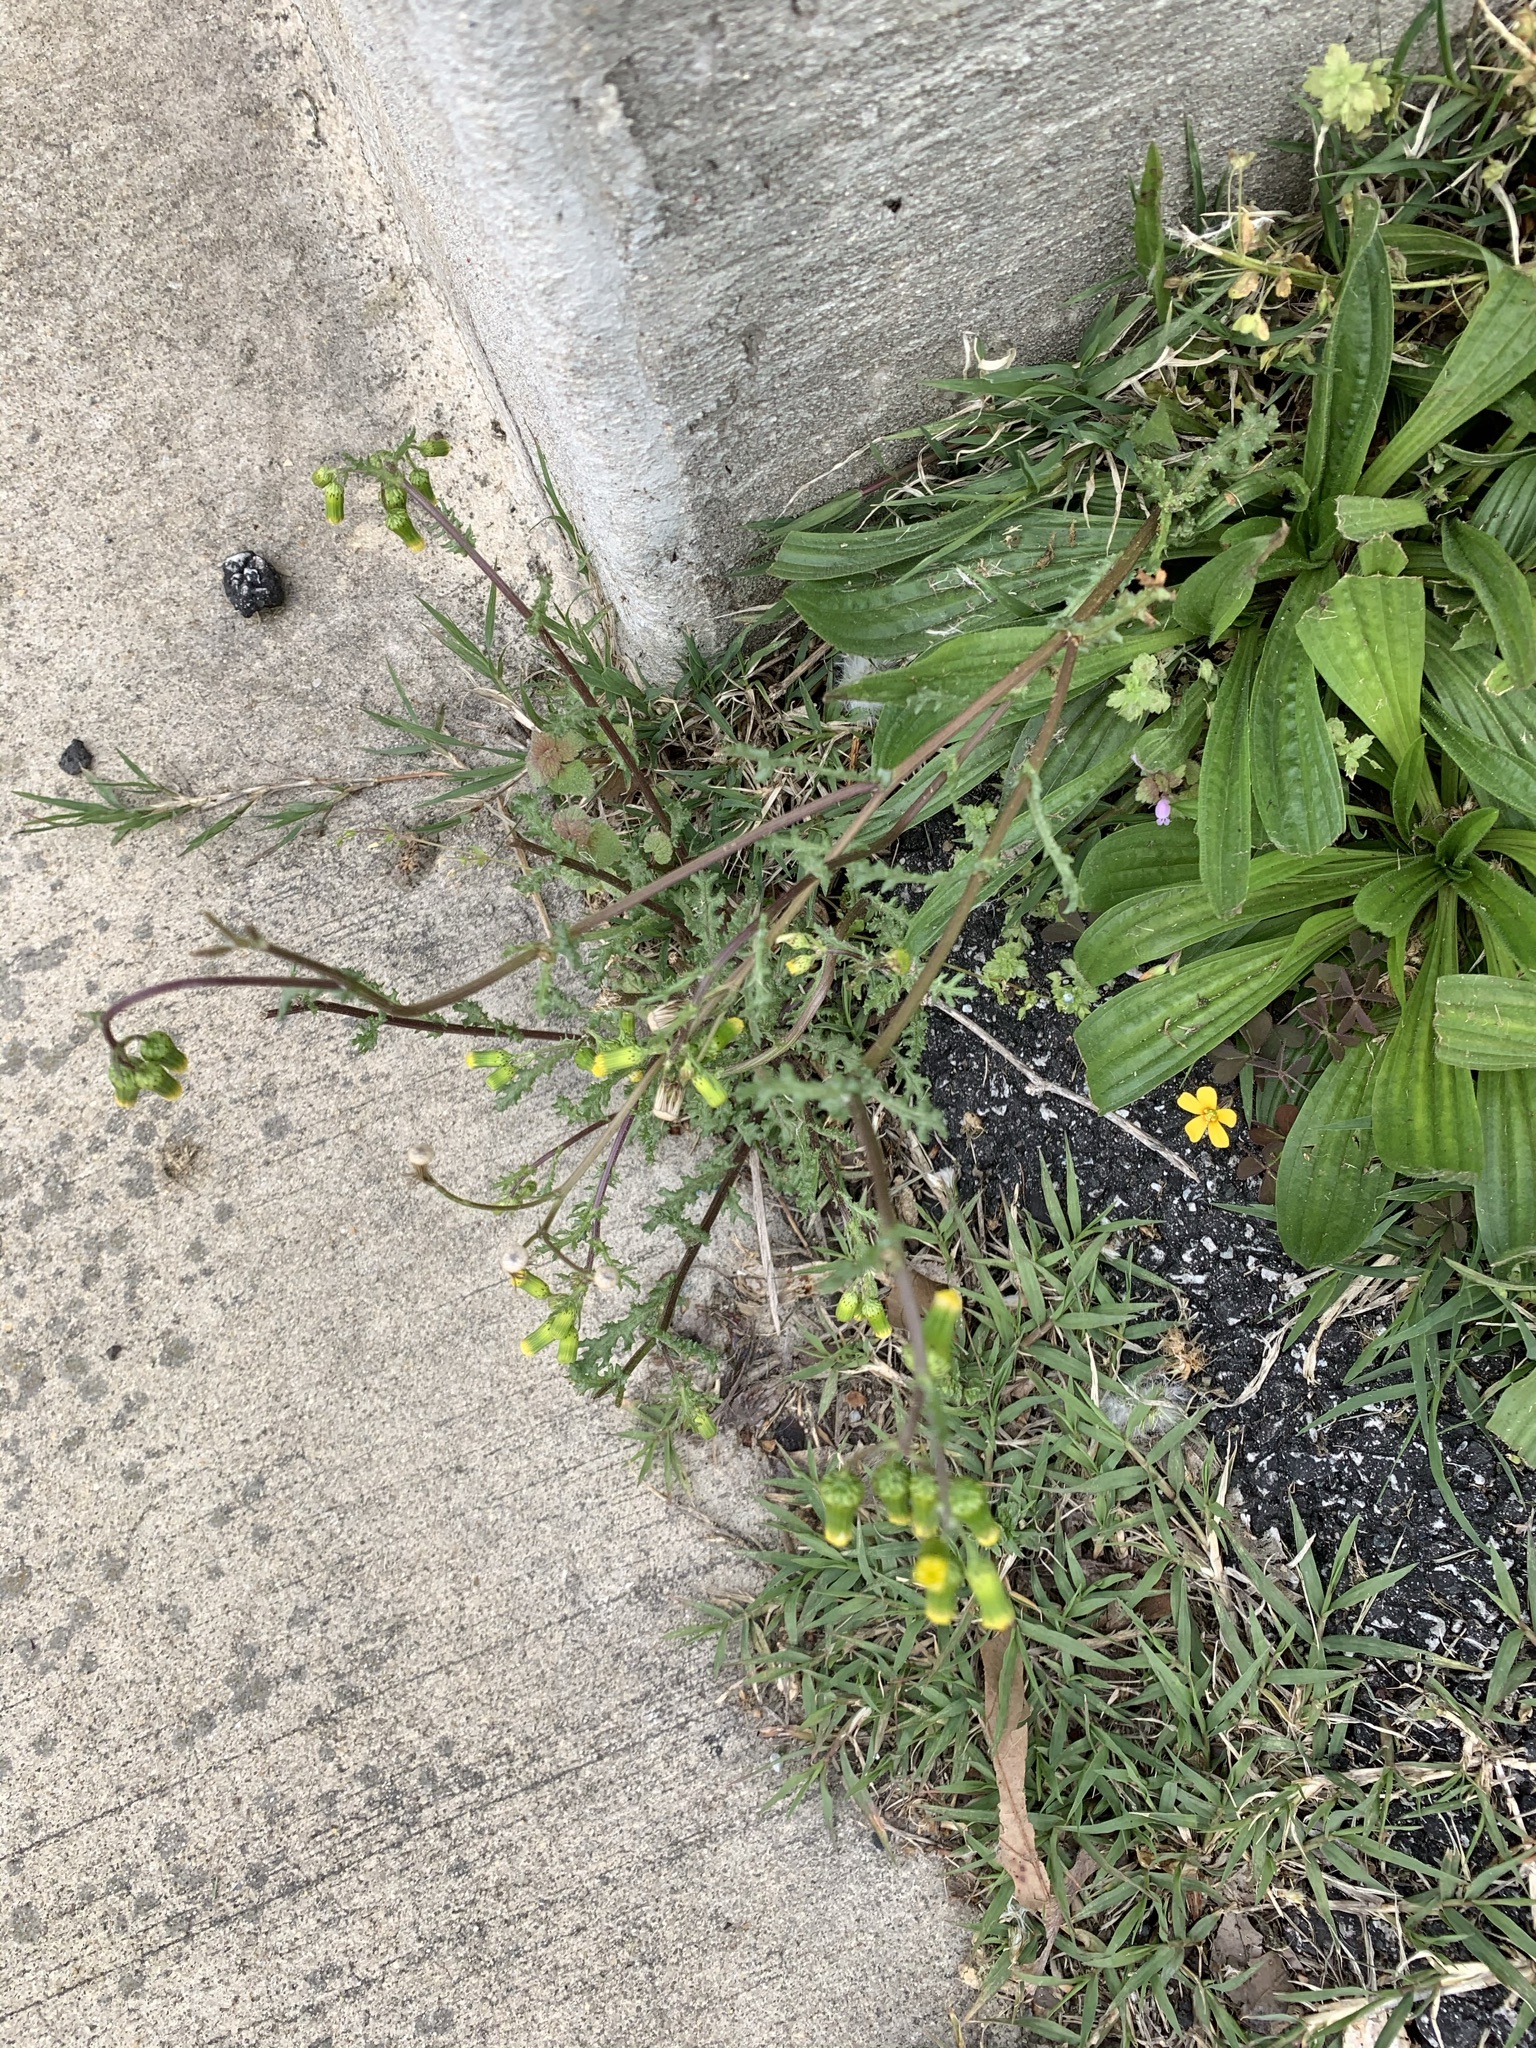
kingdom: Plantae
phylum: Tracheophyta
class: Magnoliopsida
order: Asterales
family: Asteraceae
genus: Senecio
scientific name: Senecio vulgaris
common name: Old-man-in-the-spring
